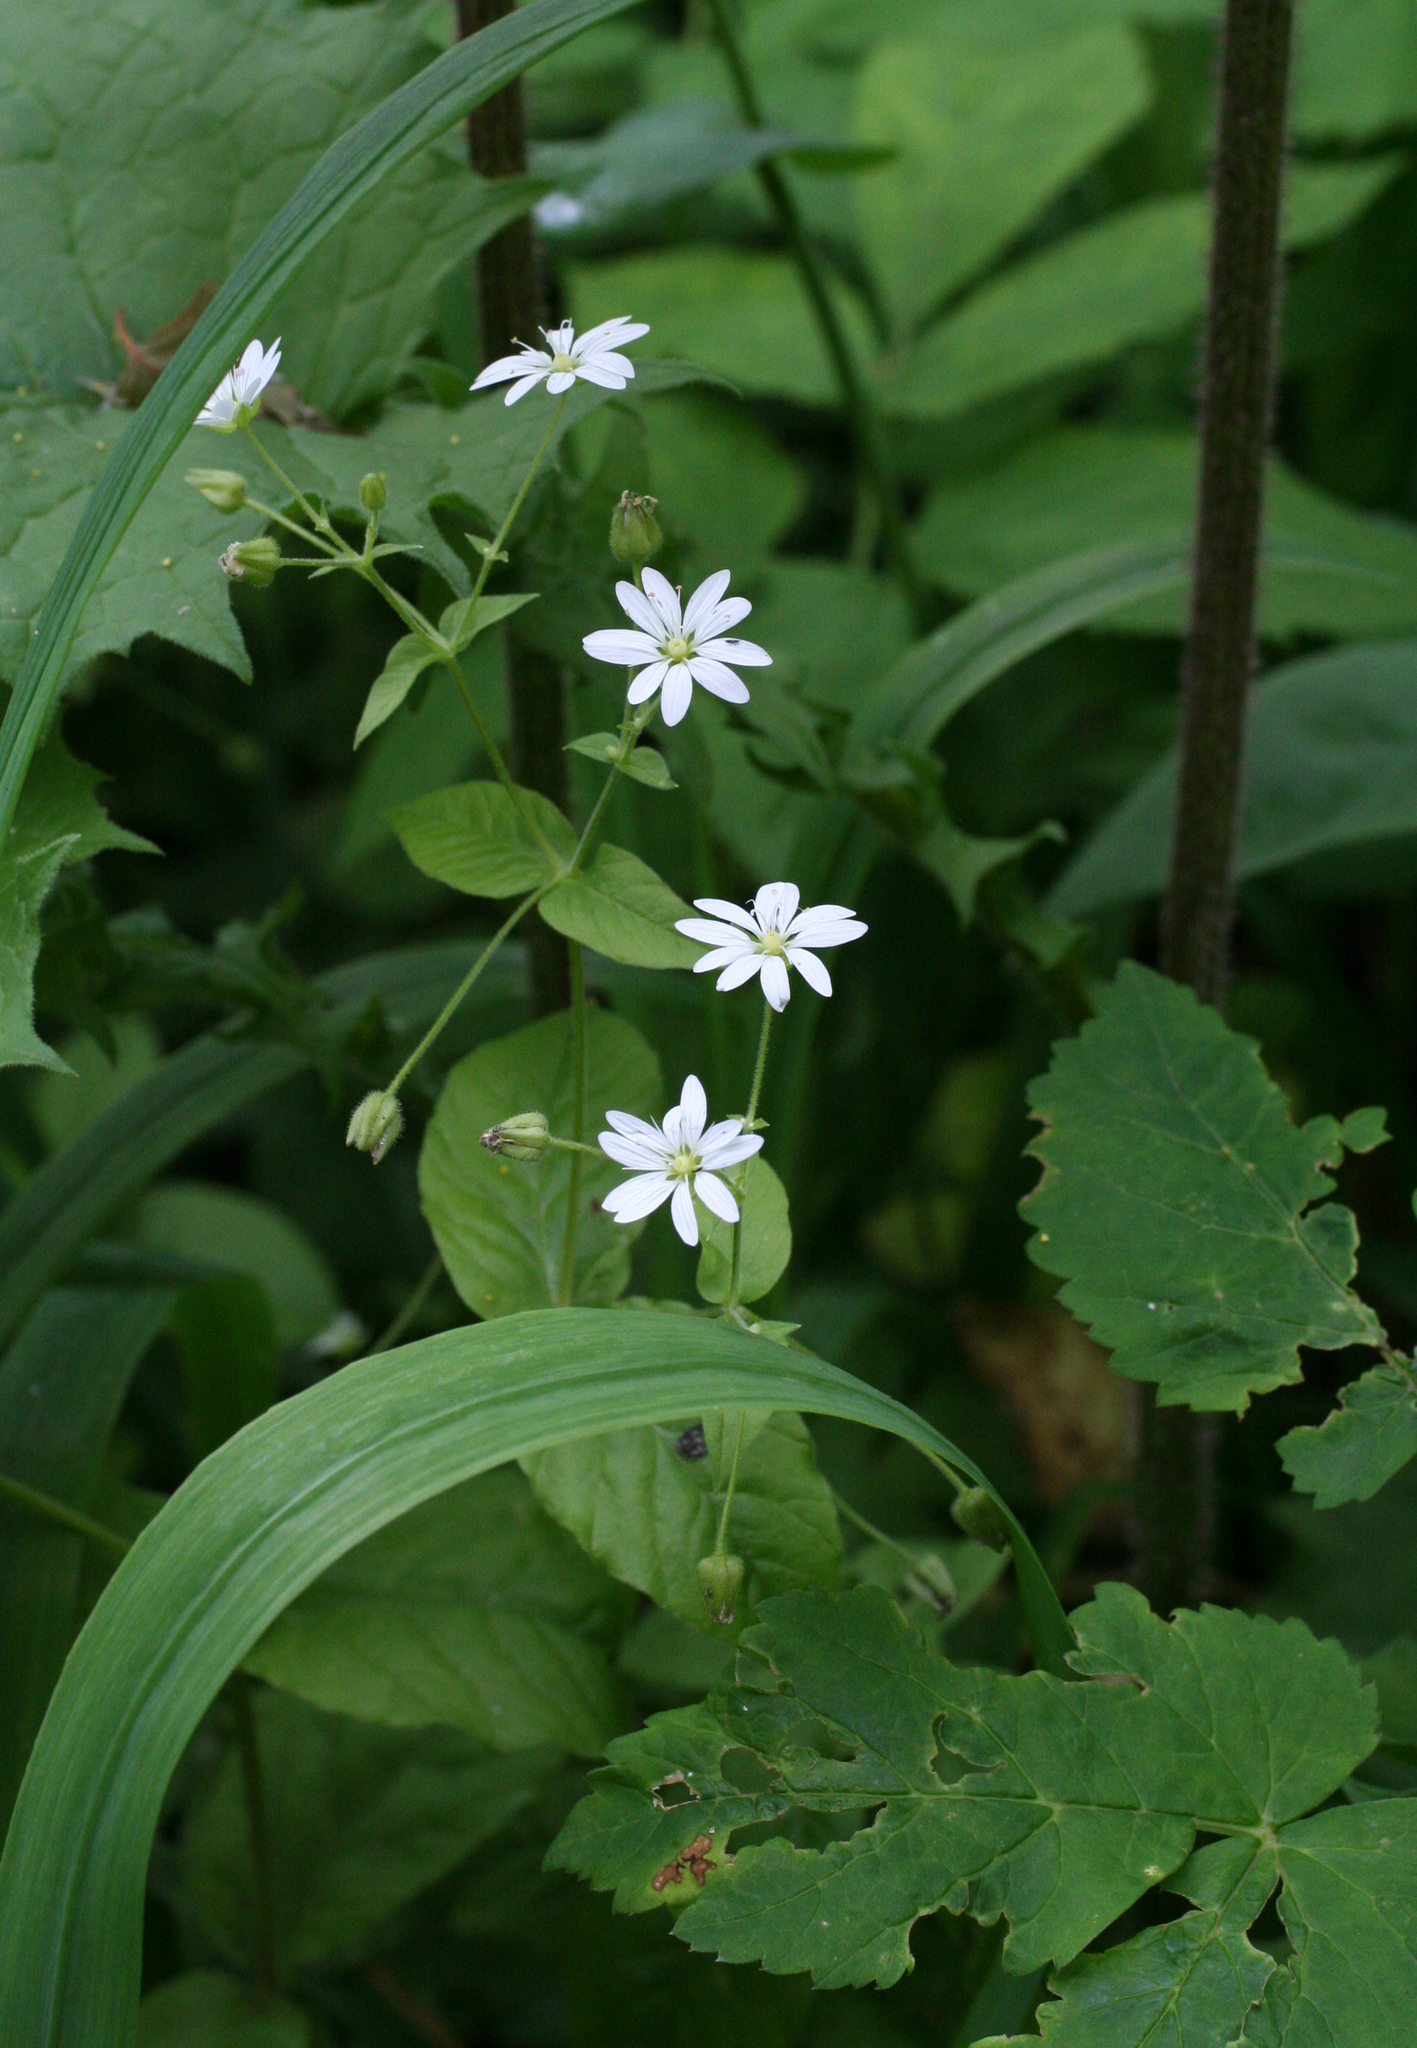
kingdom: Plantae
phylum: Tracheophyta
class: Magnoliopsida
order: Caryophyllales
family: Caryophyllaceae
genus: Stellaria
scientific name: Stellaria bungeana
